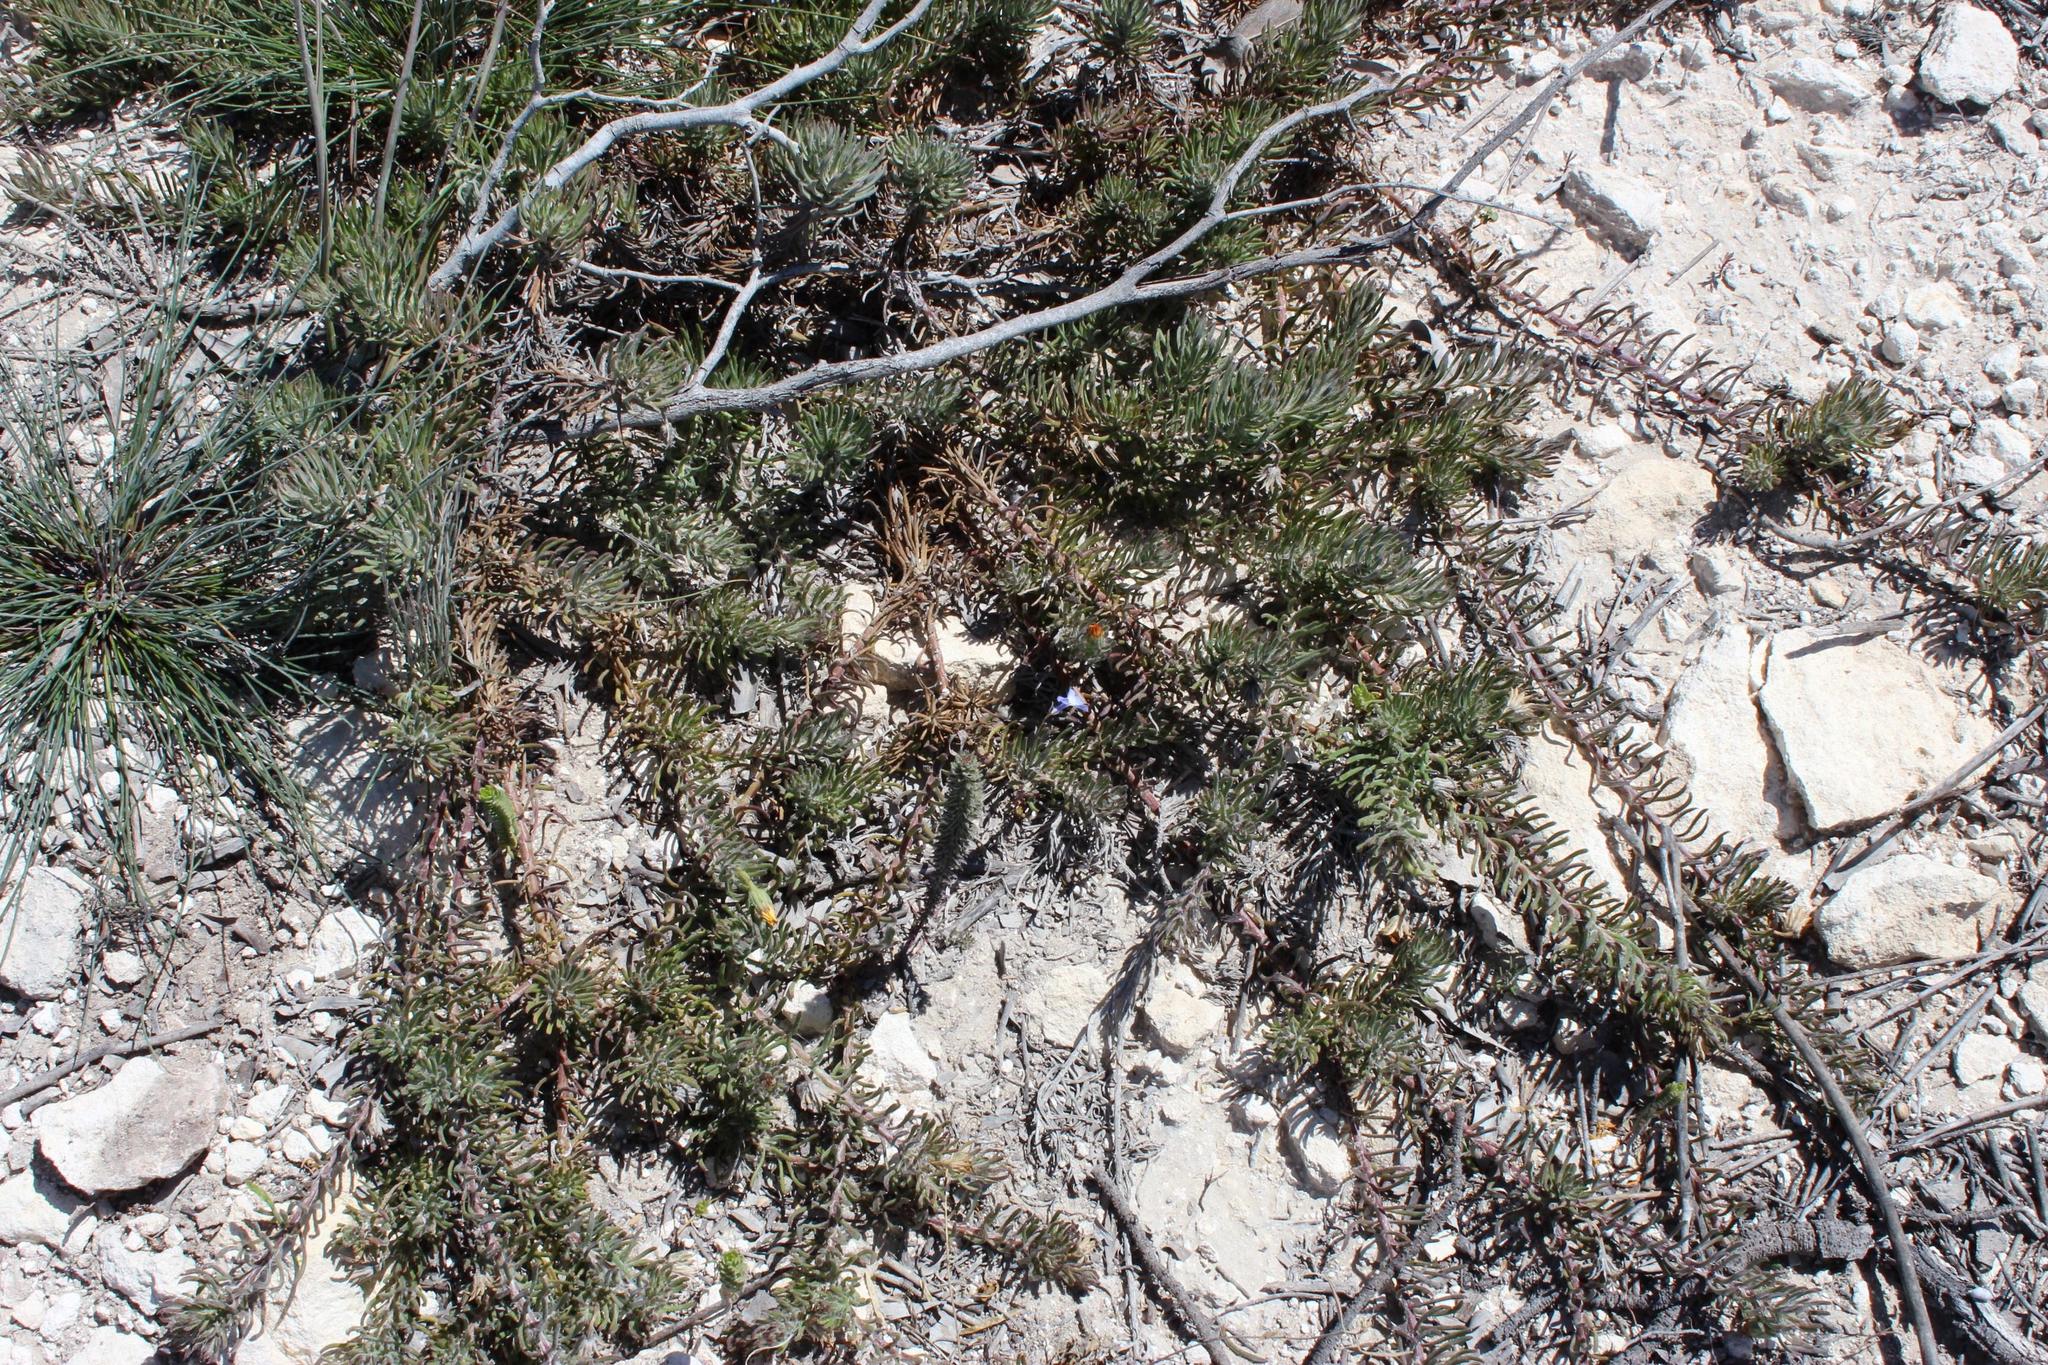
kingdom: Plantae
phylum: Tracheophyta
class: Magnoliopsida
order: Asterales
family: Asteraceae
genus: Osteospermum
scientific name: Osteospermum subulatum
